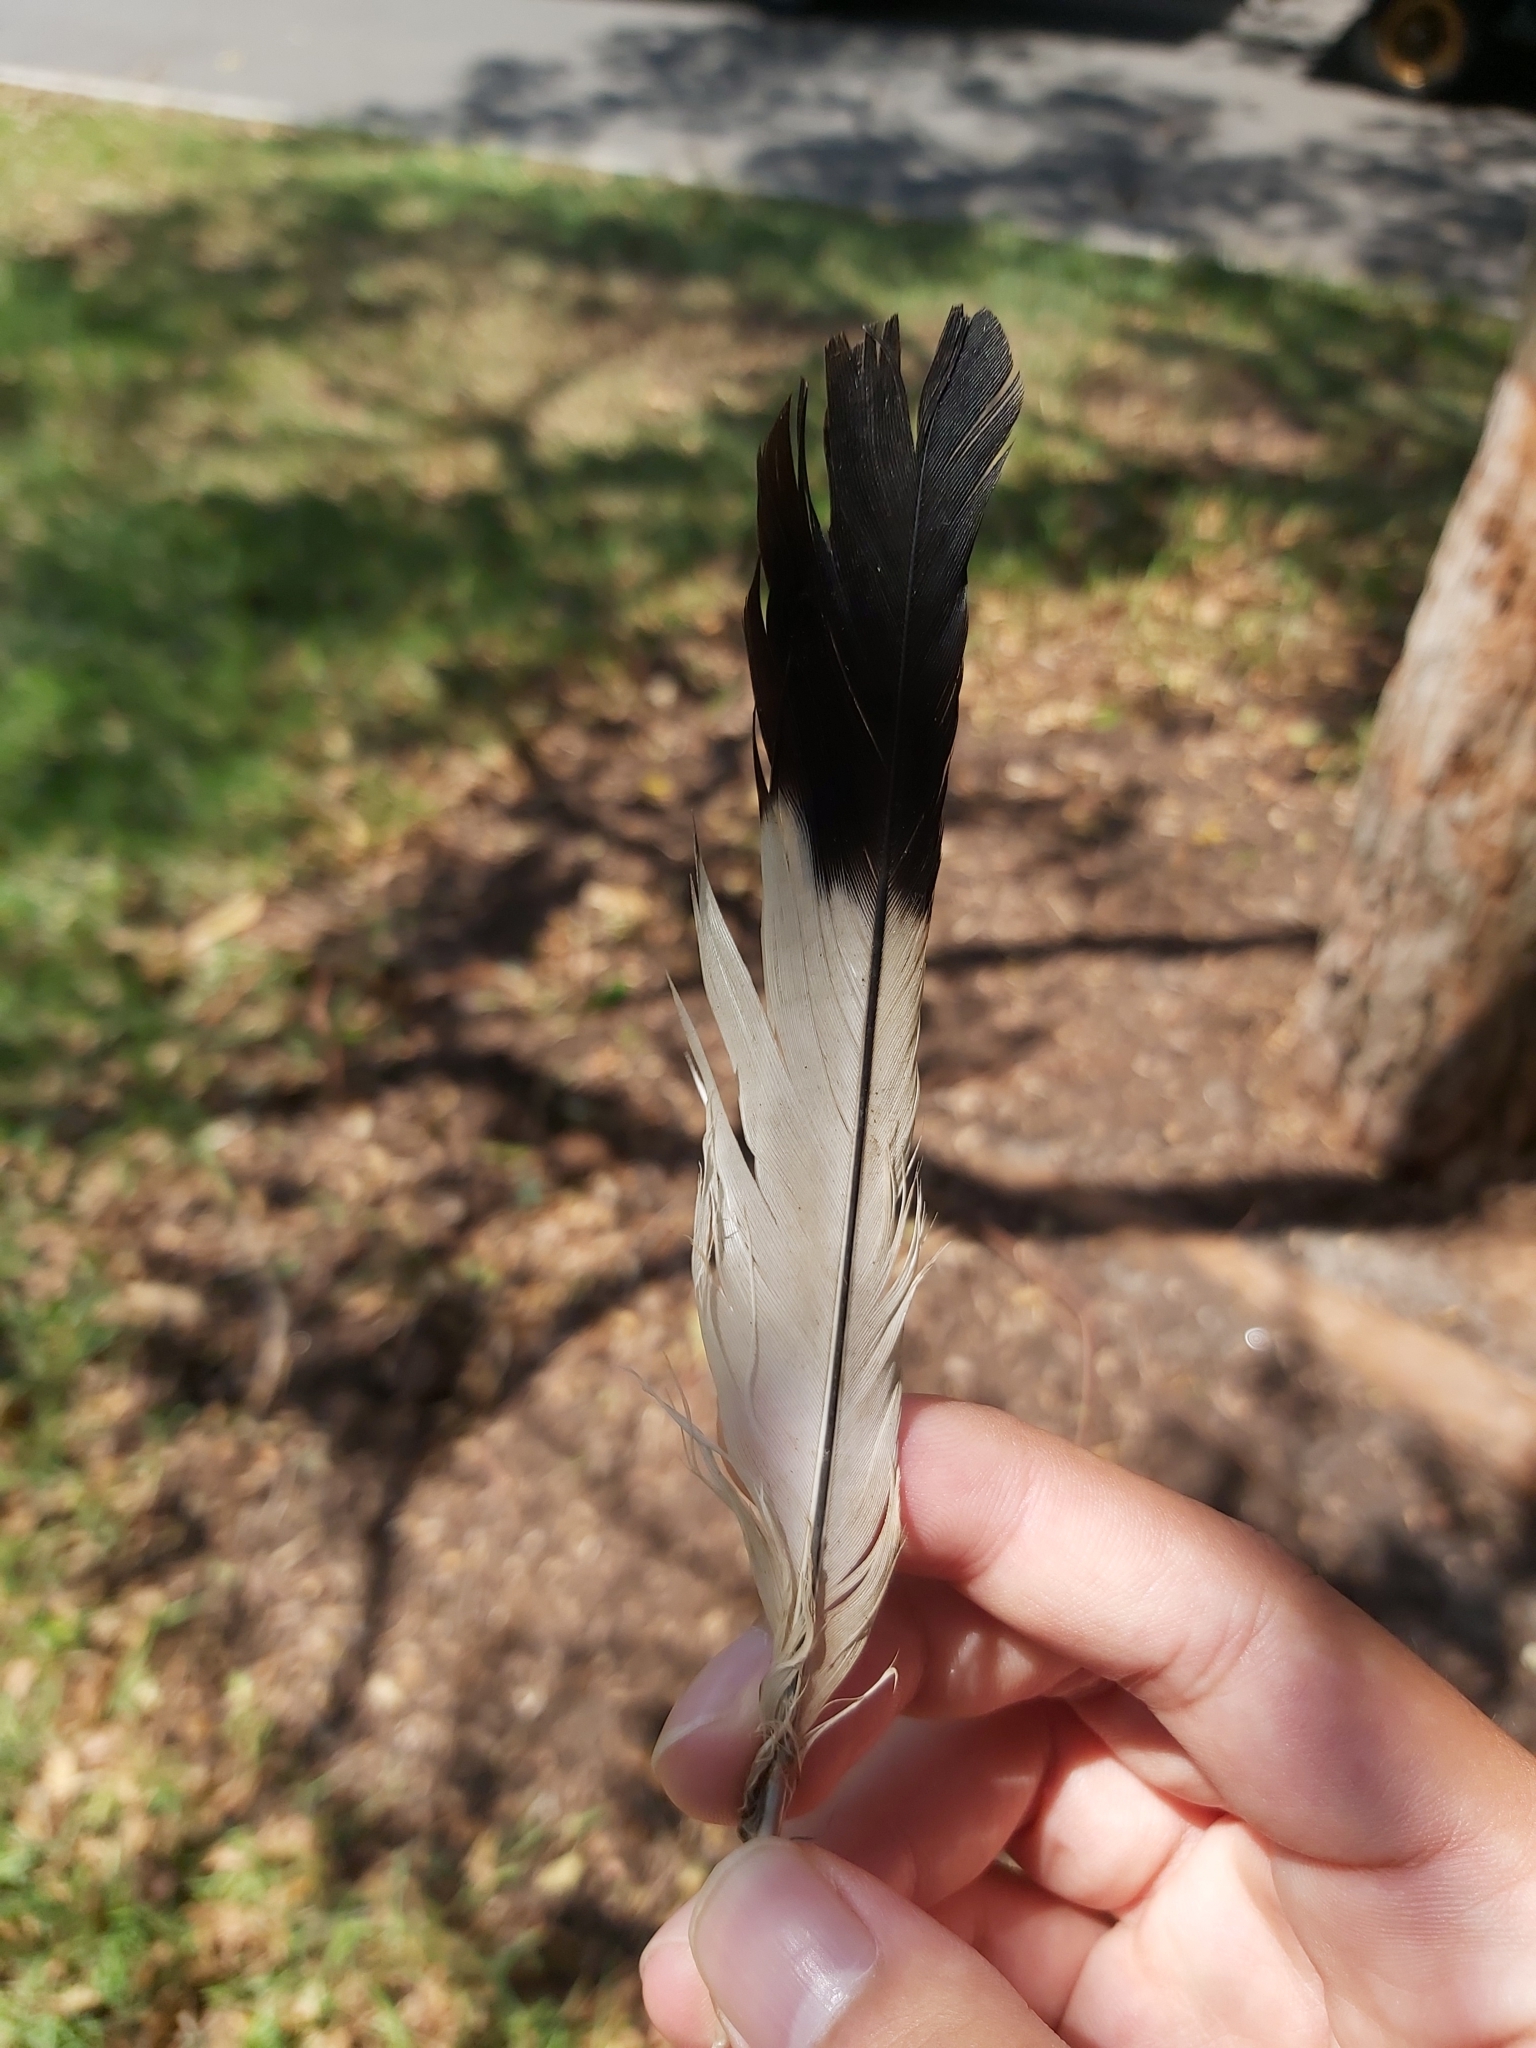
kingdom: Animalia
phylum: Chordata
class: Aves
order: Passeriformes
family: Cracticidae
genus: Gymnorhina
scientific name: Gymnorhina tibicen
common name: Australian magpie
